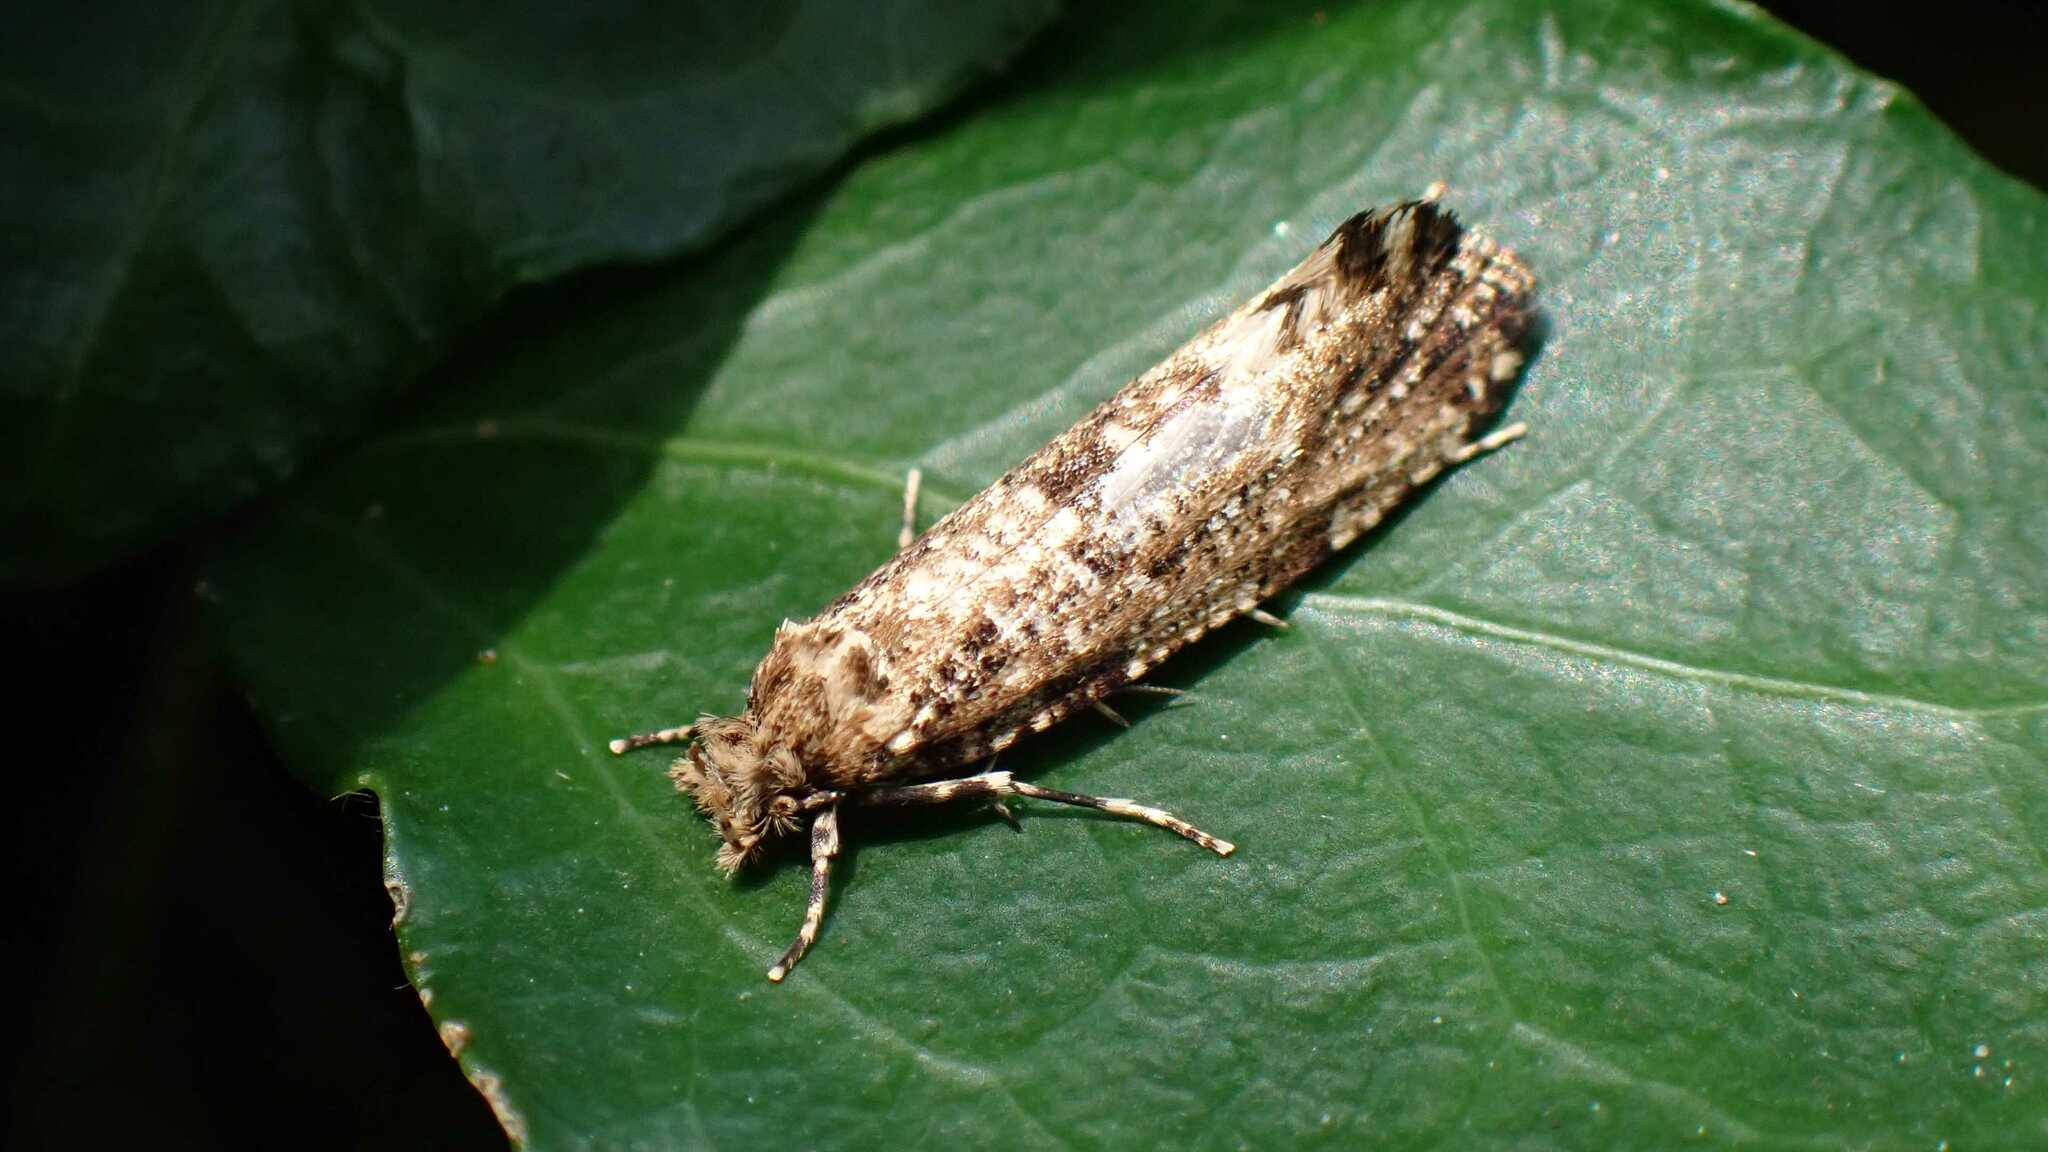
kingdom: Animalia
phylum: Arthropoda
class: Insecta
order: Lepidoptera
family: Tineidae
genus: Morophaga
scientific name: Morophaga choragella
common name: Large clothes
